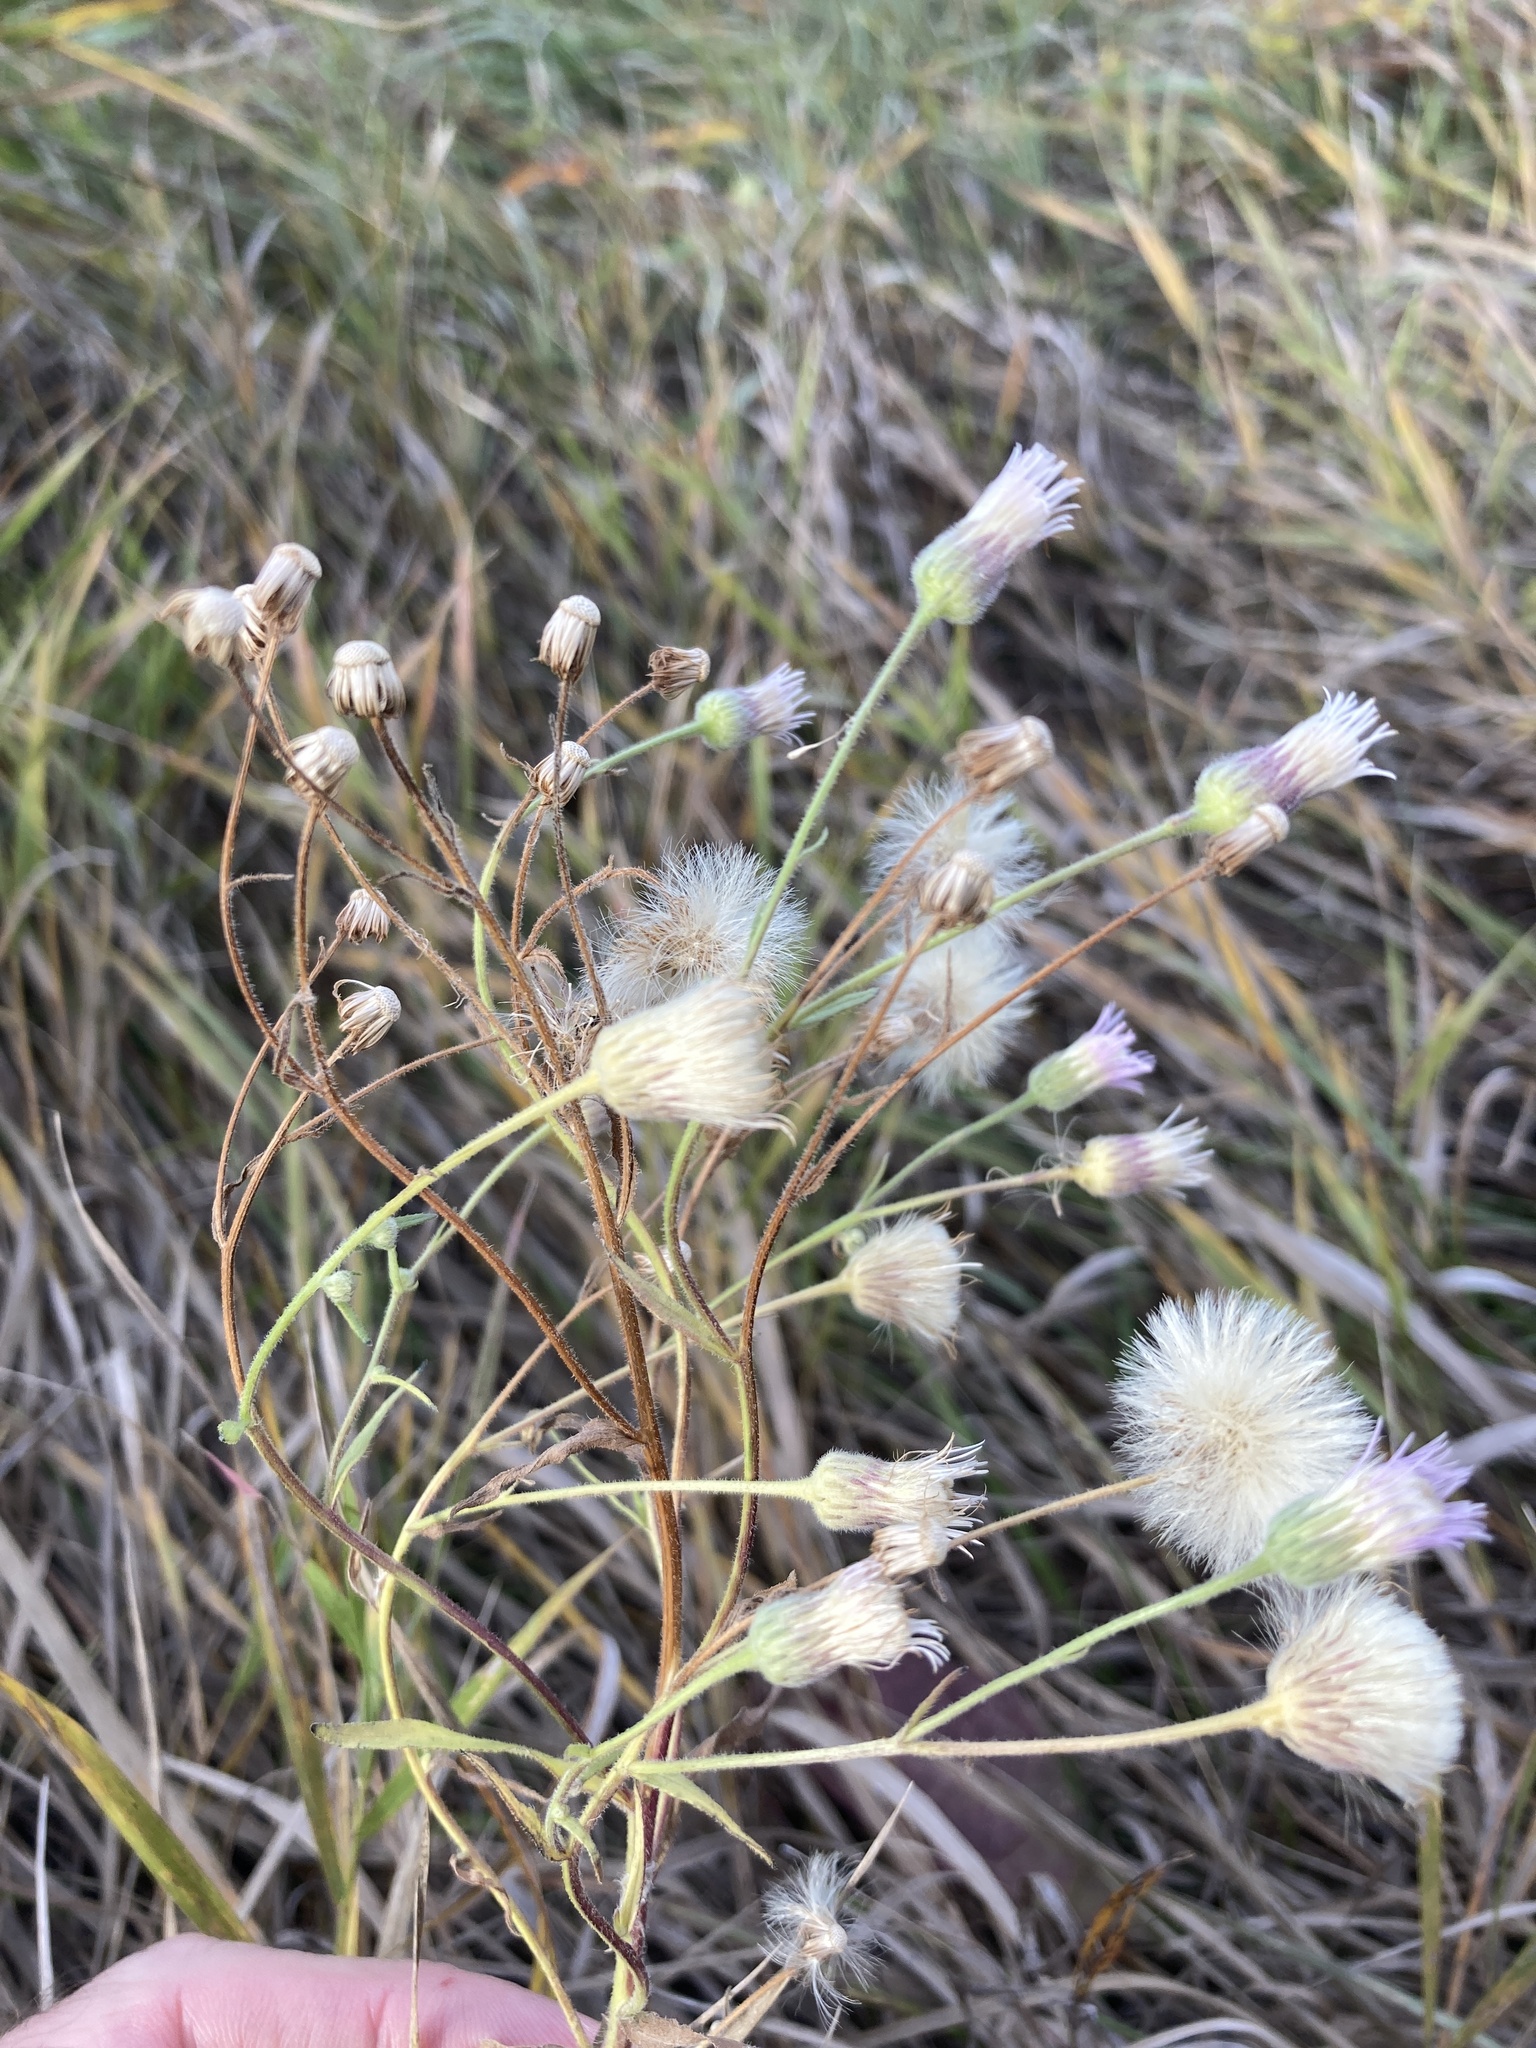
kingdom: Plantae
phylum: Tracheophyta
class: Magnoliopsida
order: Asterales
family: Asteraceae
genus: Erigeron
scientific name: Erigeron acris
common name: Blue fleabane
